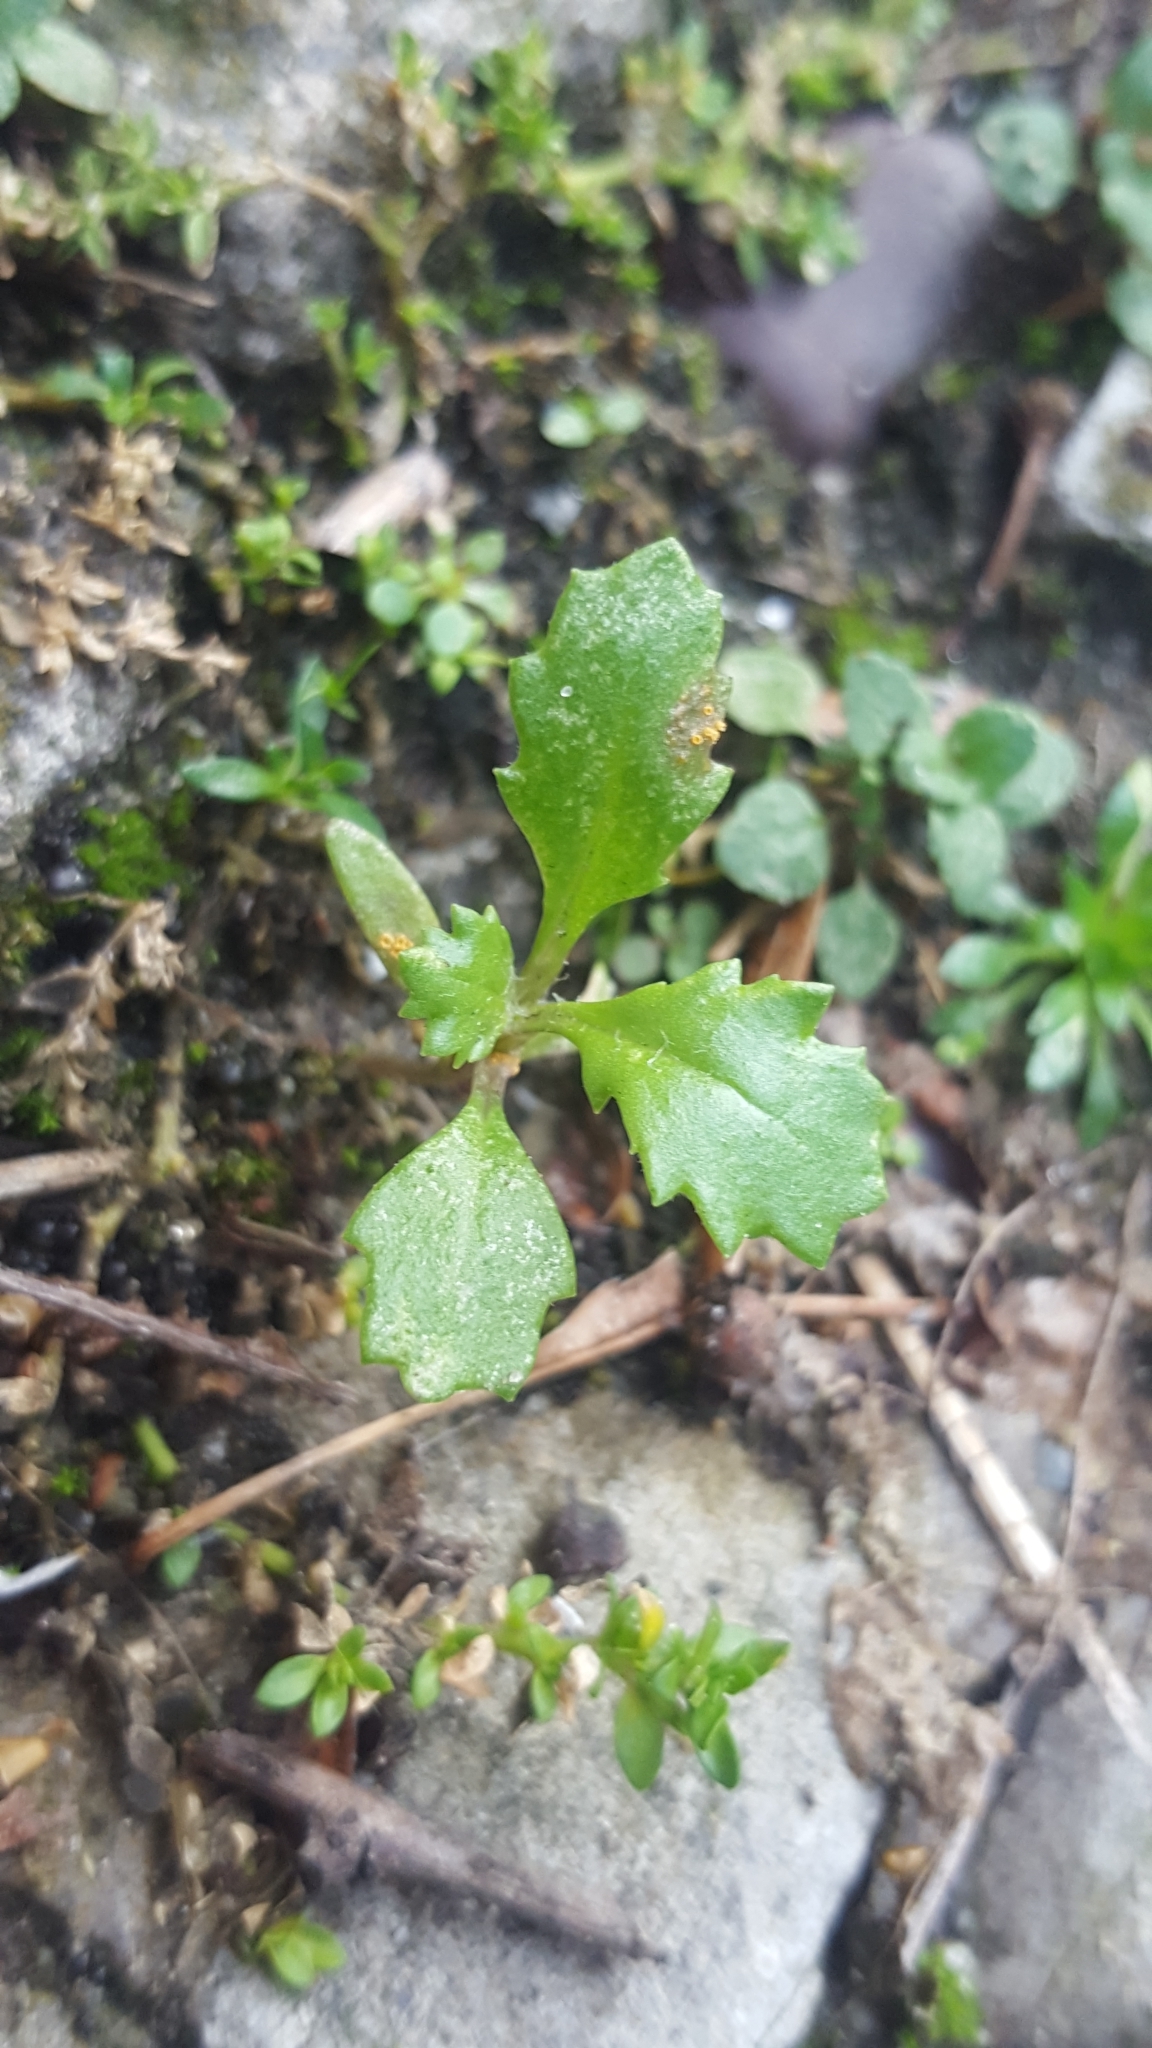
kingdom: Plantae
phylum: Tracheophyta
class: Magnoliopsida
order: Asterales
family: Asteraceae
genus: Senecio
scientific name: Senecio vulgaris
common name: Old-man-in-the-spring
